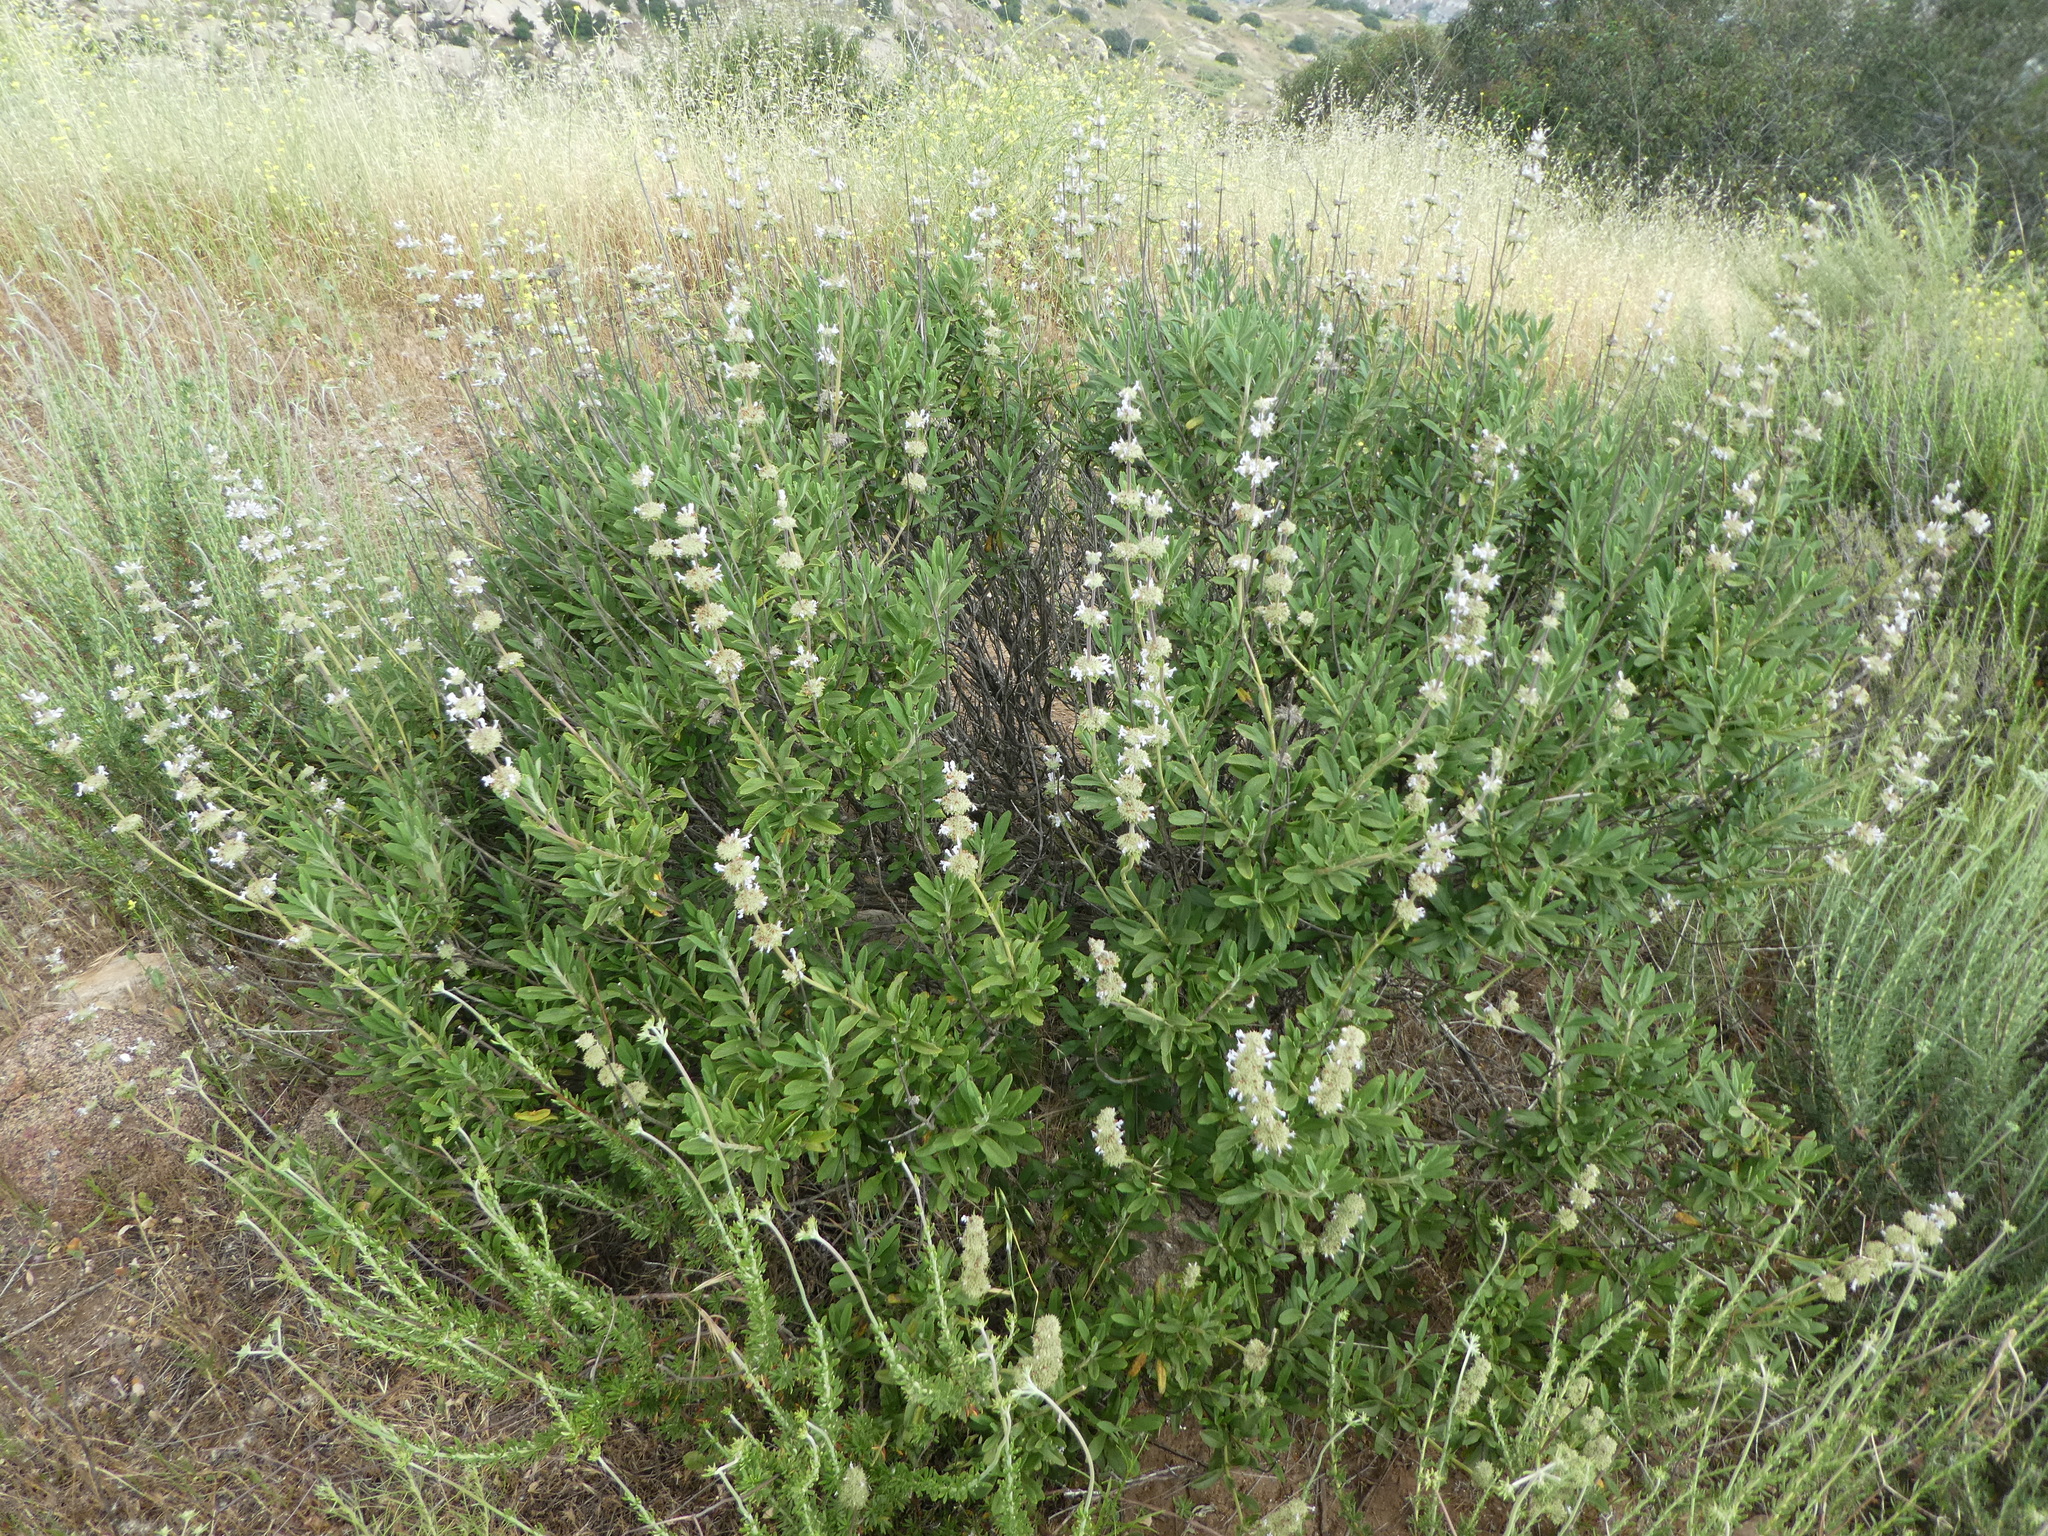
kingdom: Plantae
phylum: Tracheophyta
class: Magnoliopsida
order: Lamiales
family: Lamiaceae
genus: Salvia
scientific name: Salvia mellifera
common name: Black sage
